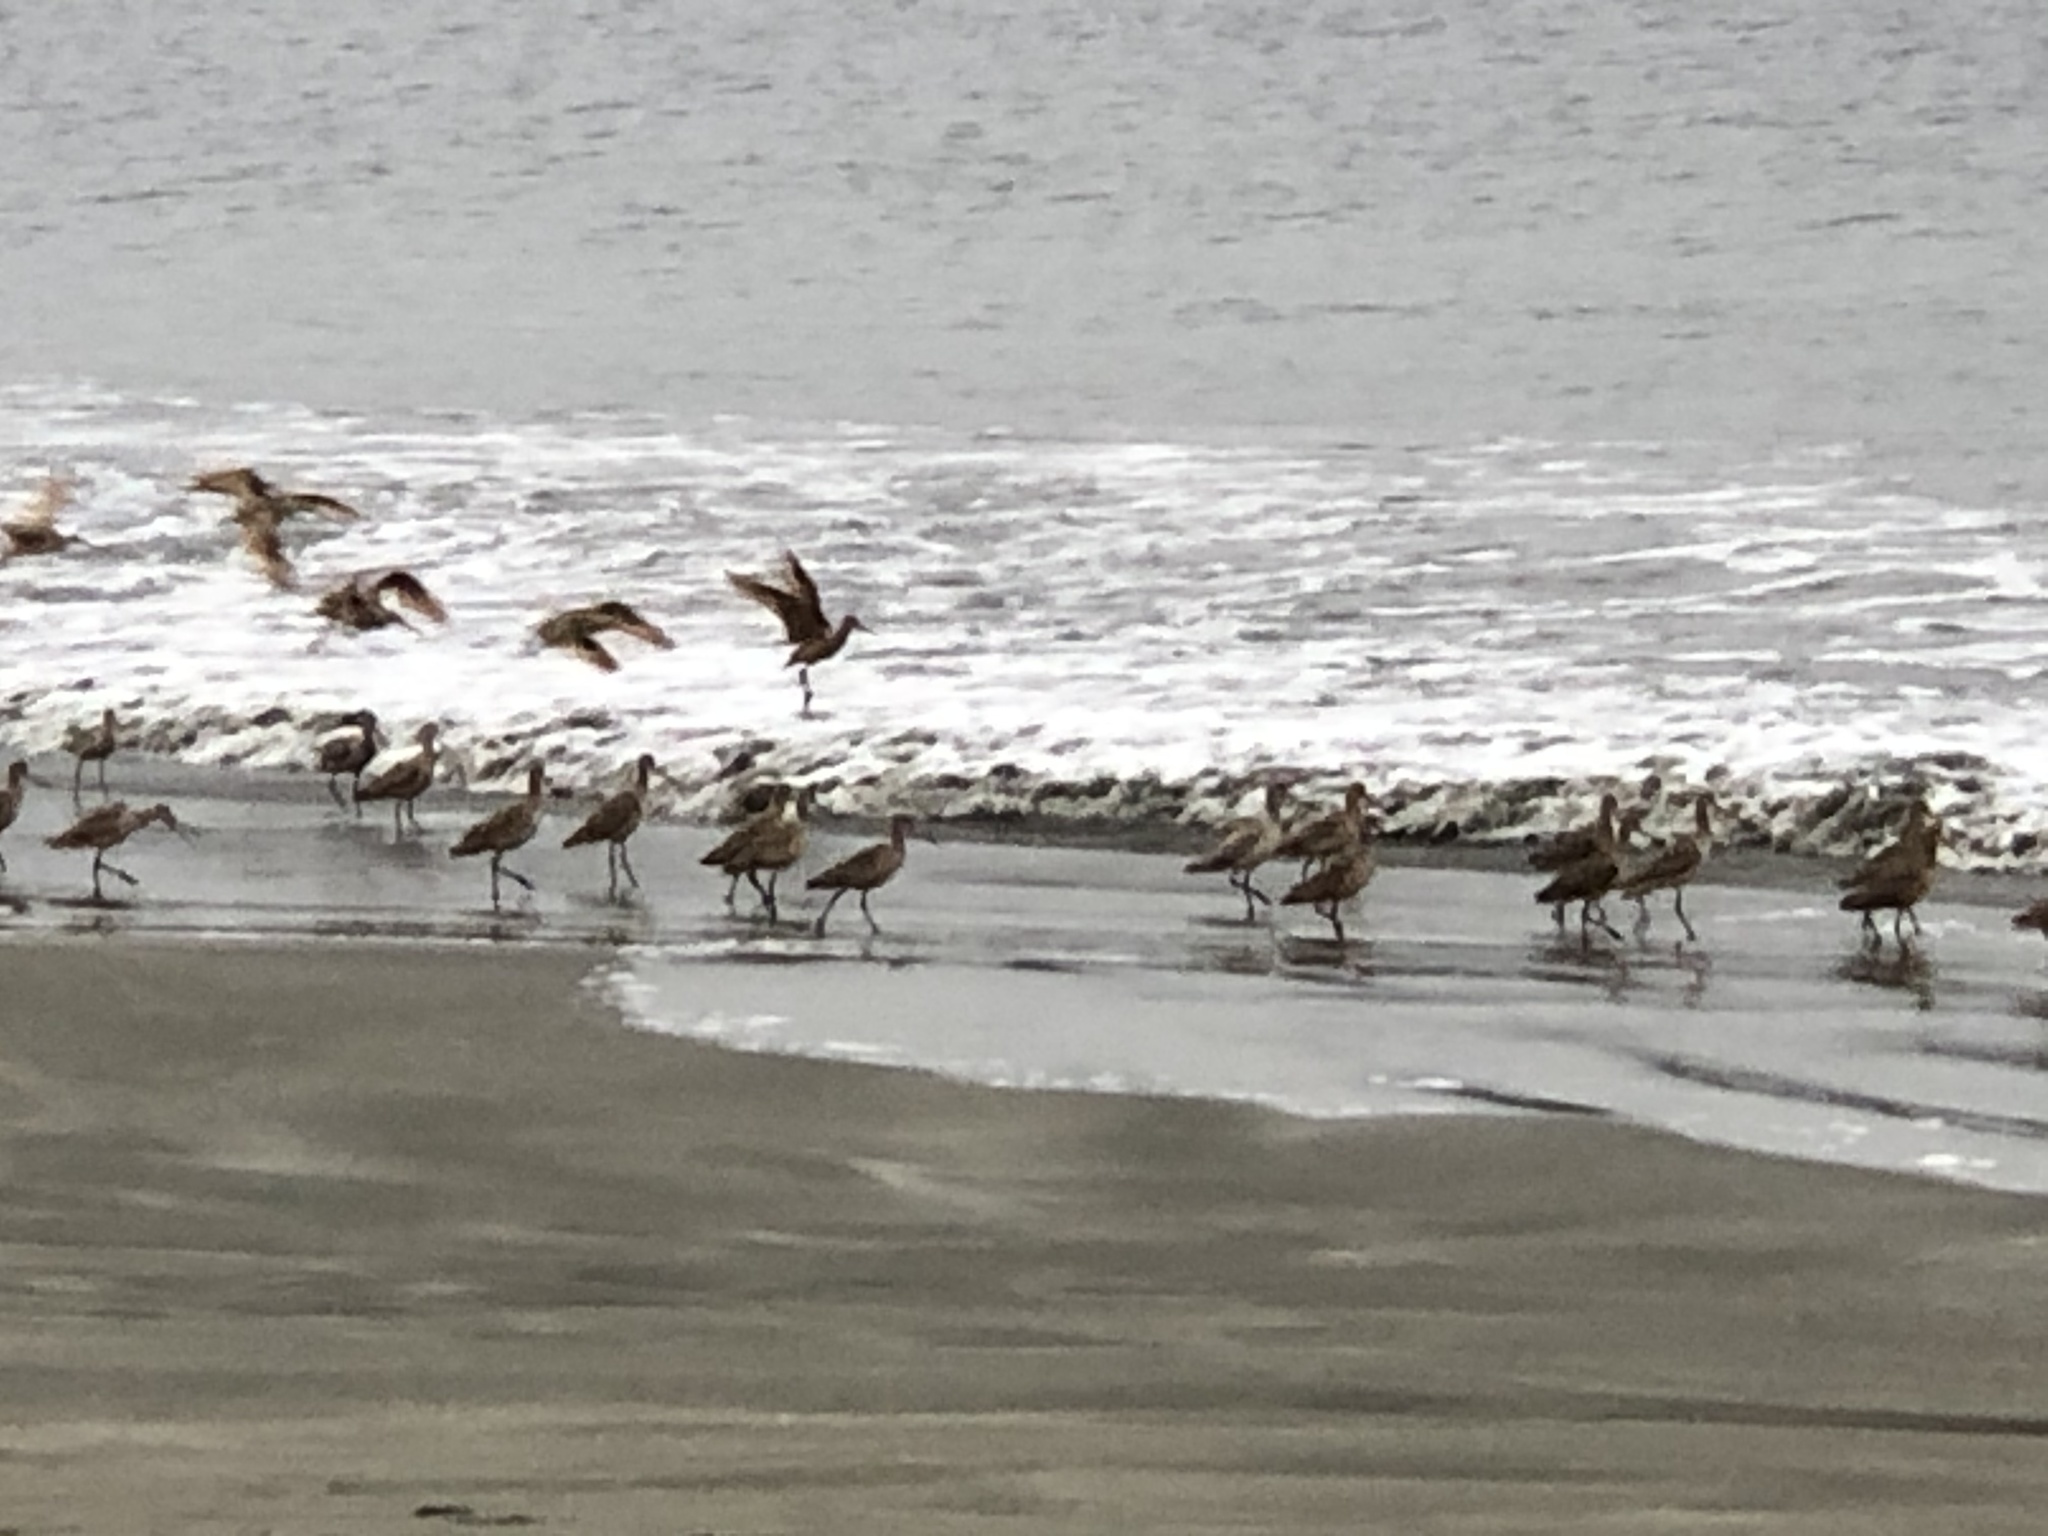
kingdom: Animalia
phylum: Chordata
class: Aves
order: Charadriiformes
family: Scolopacidae
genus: Limosa
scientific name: Limosa fedoa
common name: Marbled godwit
